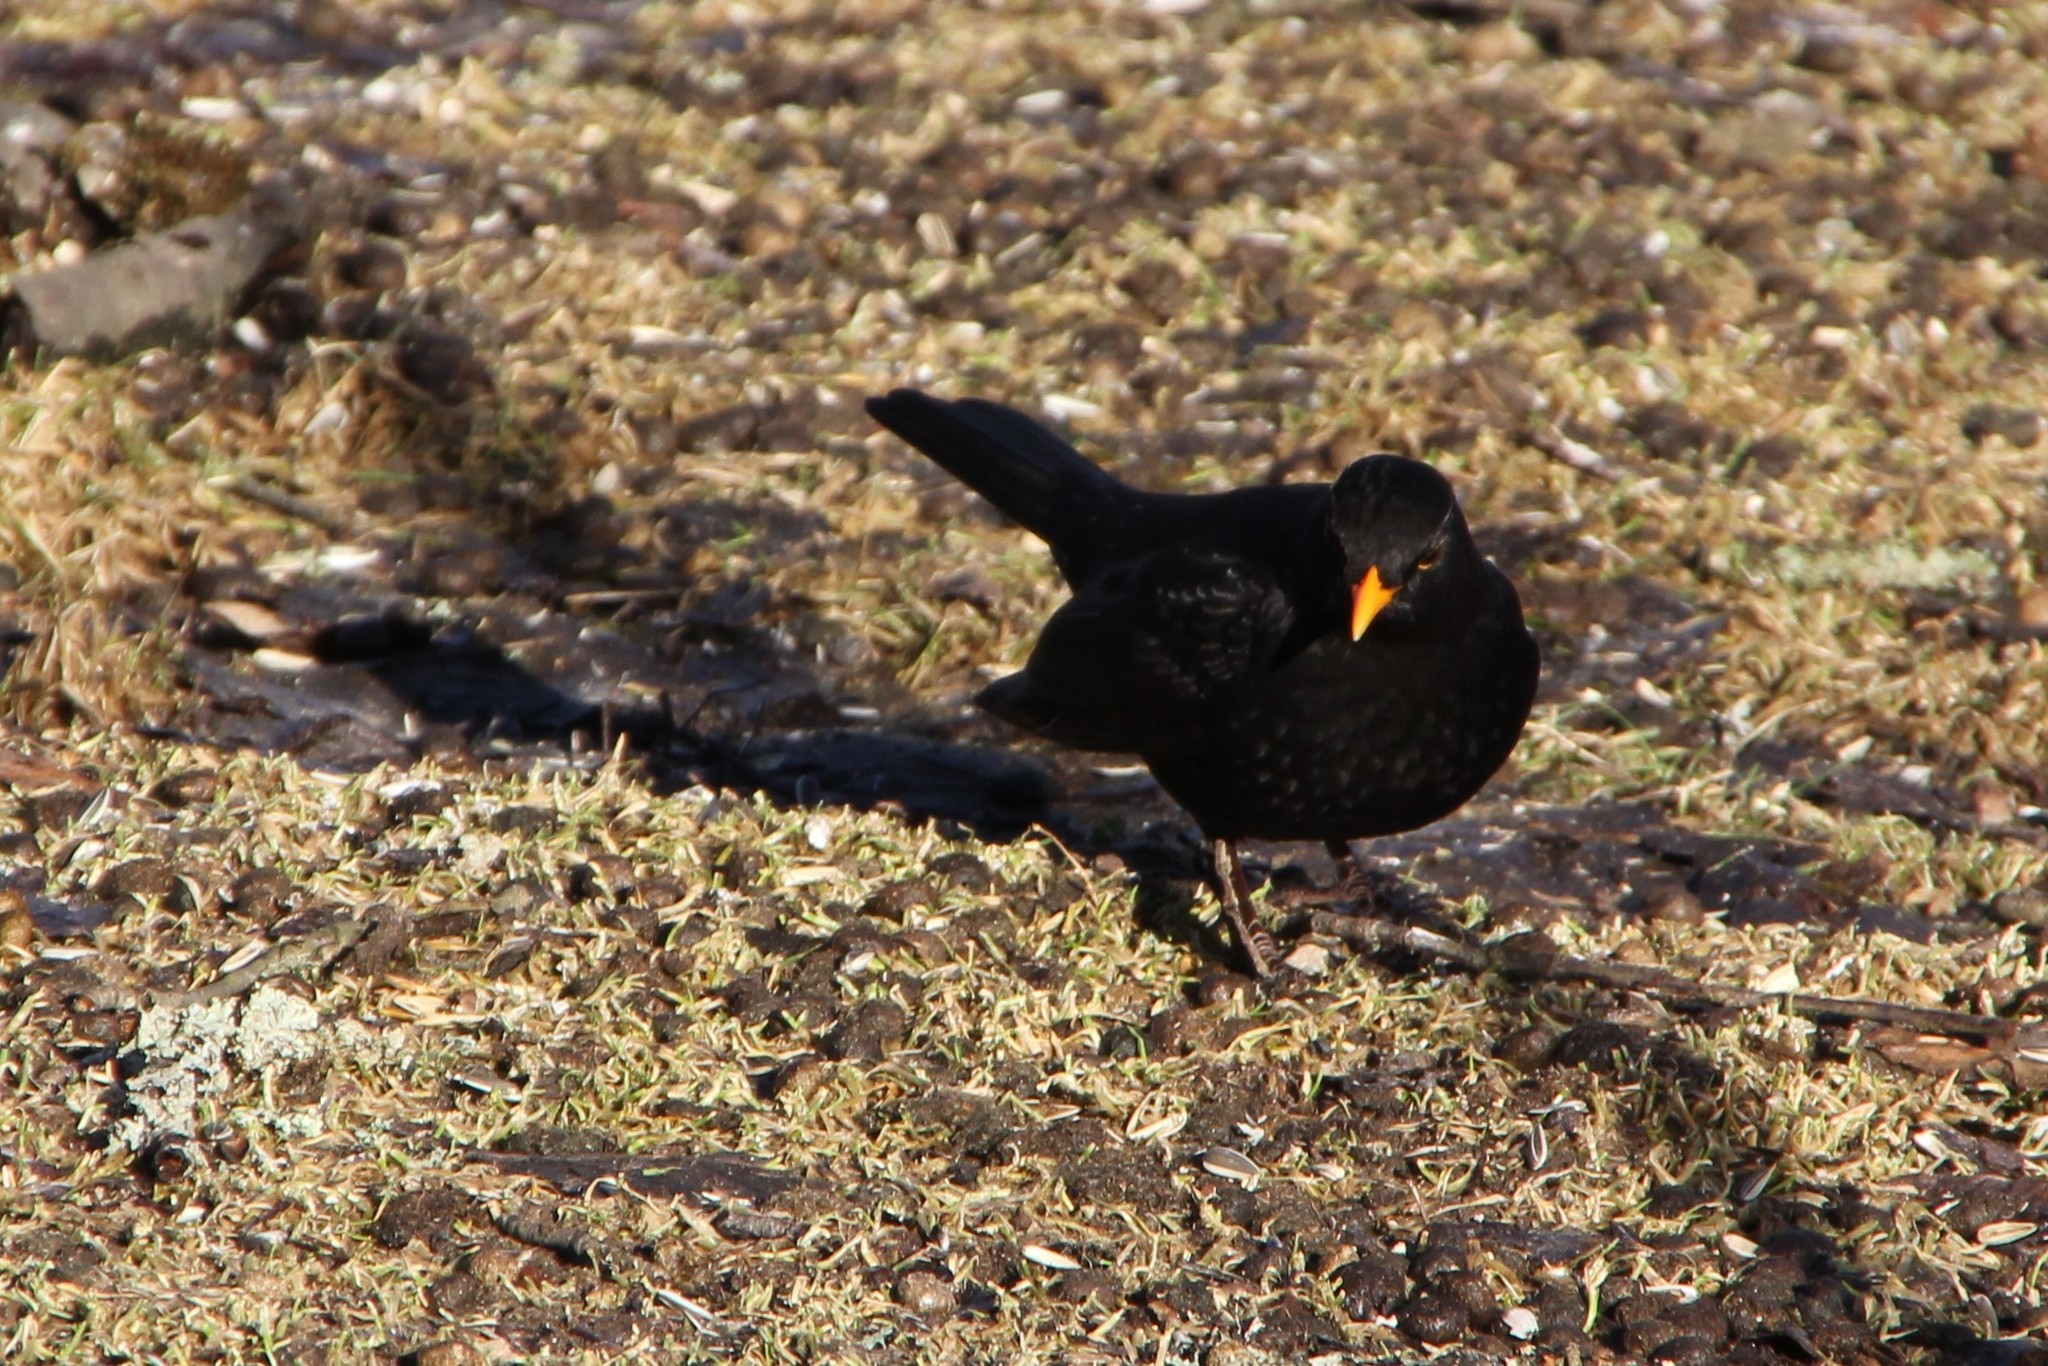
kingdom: Animalia
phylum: Chordata
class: Aves
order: Passeriformes
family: Turdidae
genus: Turdus
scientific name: Turdus merula
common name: Common blackbird
